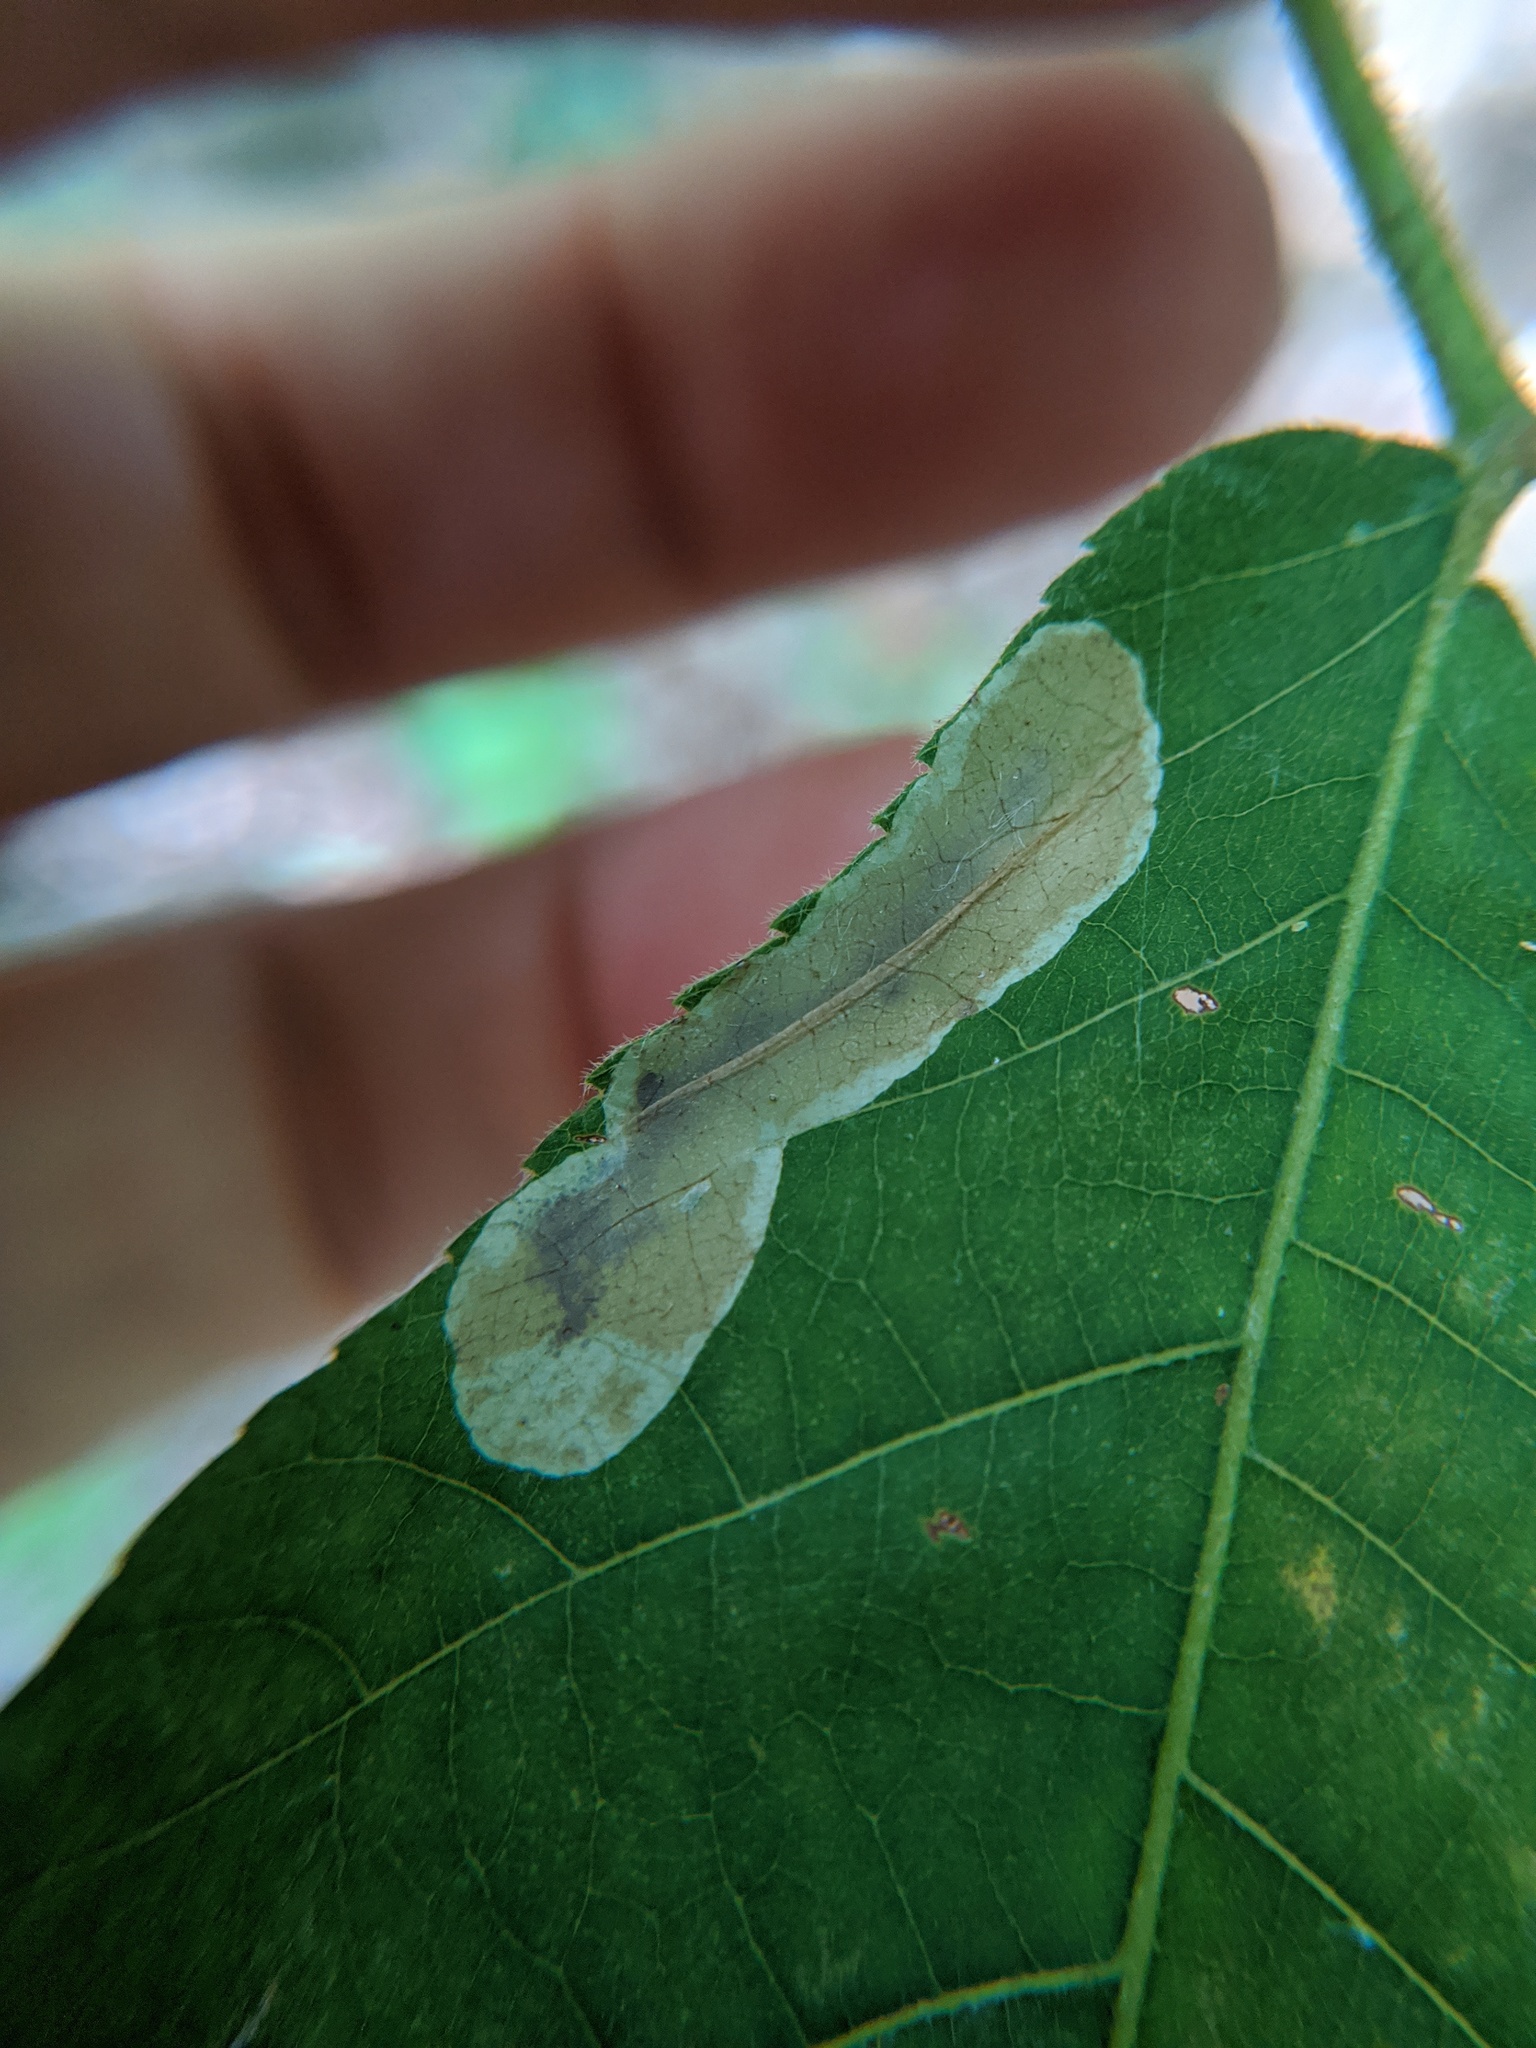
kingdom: Animalia
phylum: Arthropoda
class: Insecta
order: Lepidoptera
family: Gracillariidae
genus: Cameraria
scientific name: Cameraria caryaefoliella
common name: Pecan leafminer moth
